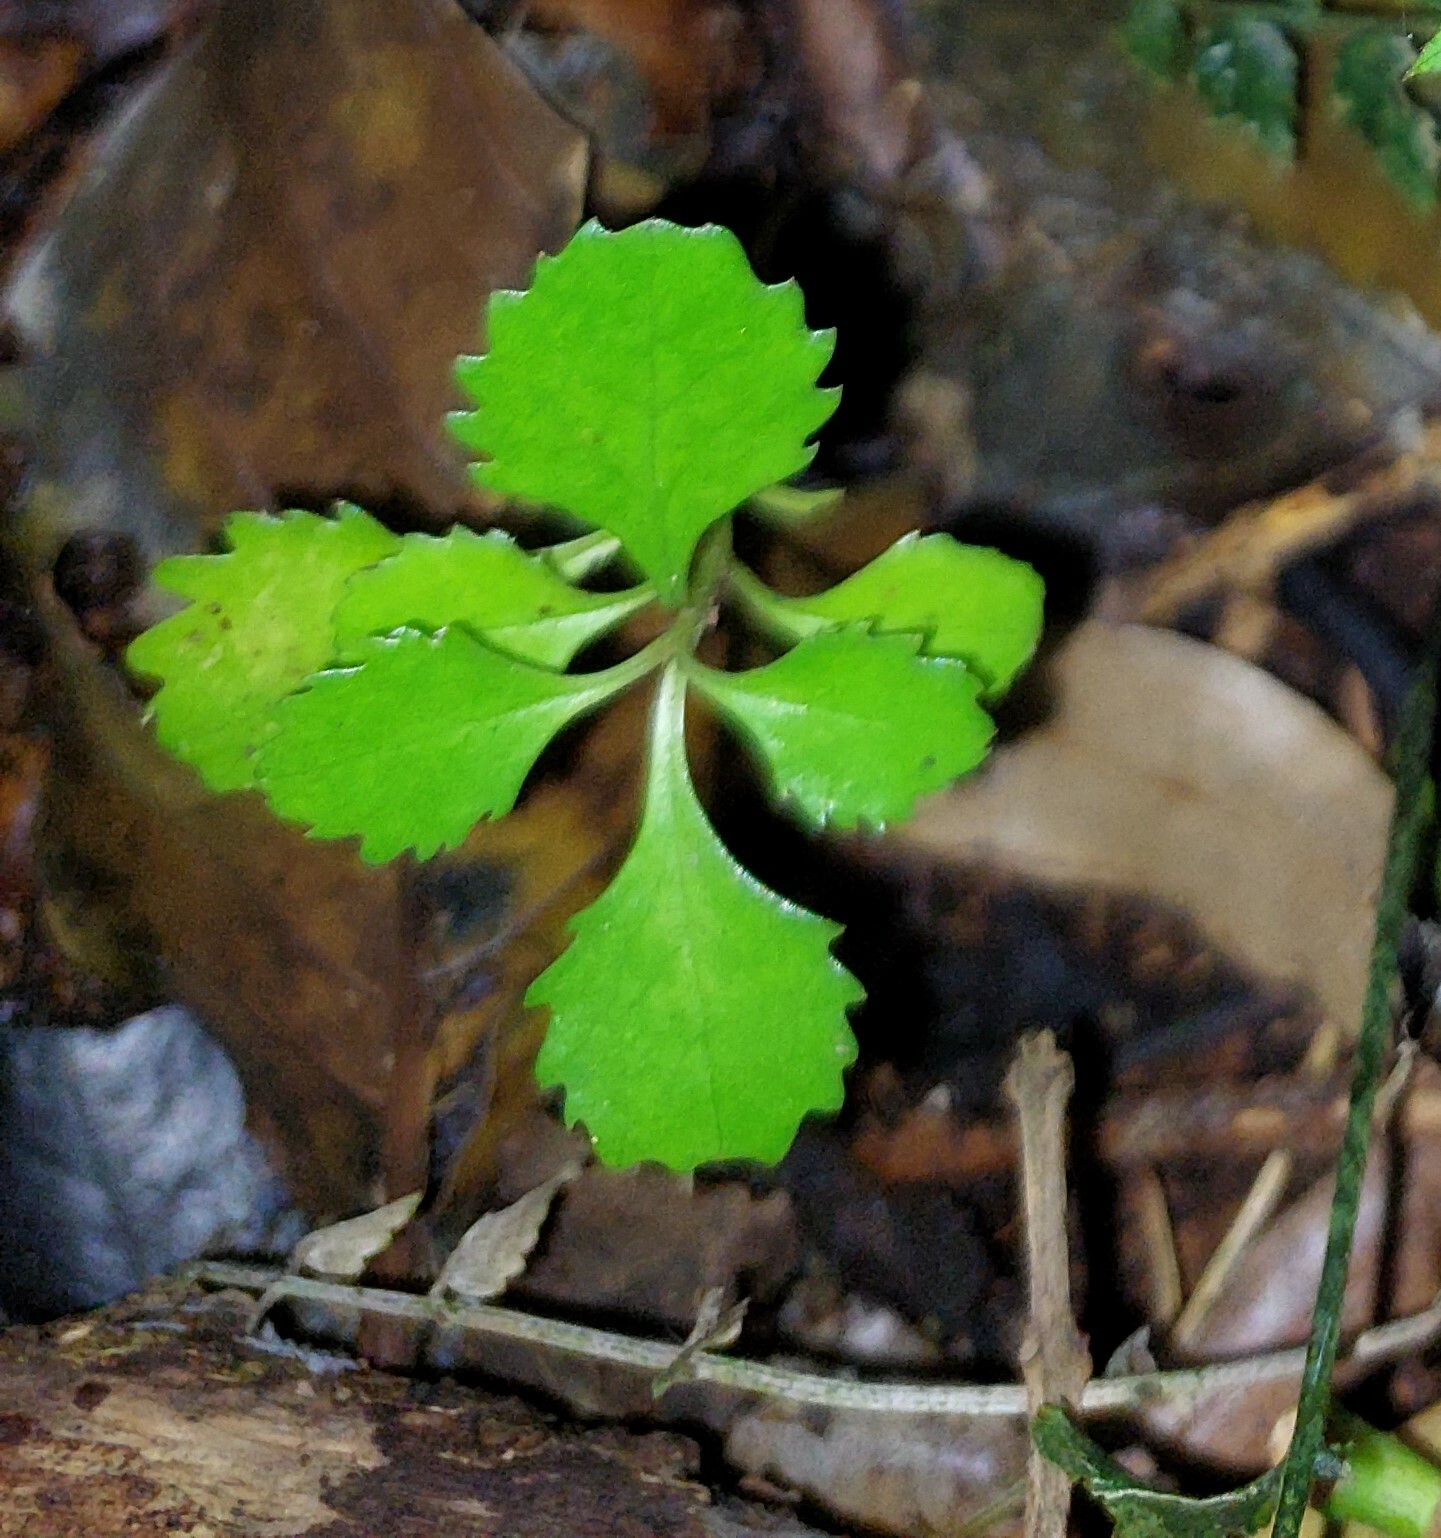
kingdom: Plantae
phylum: Tracheophyta
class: Magnoliopsida
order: Laurales
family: Atherospermataceae
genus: Laurelia
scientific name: Laurelia novae-zelandiae
